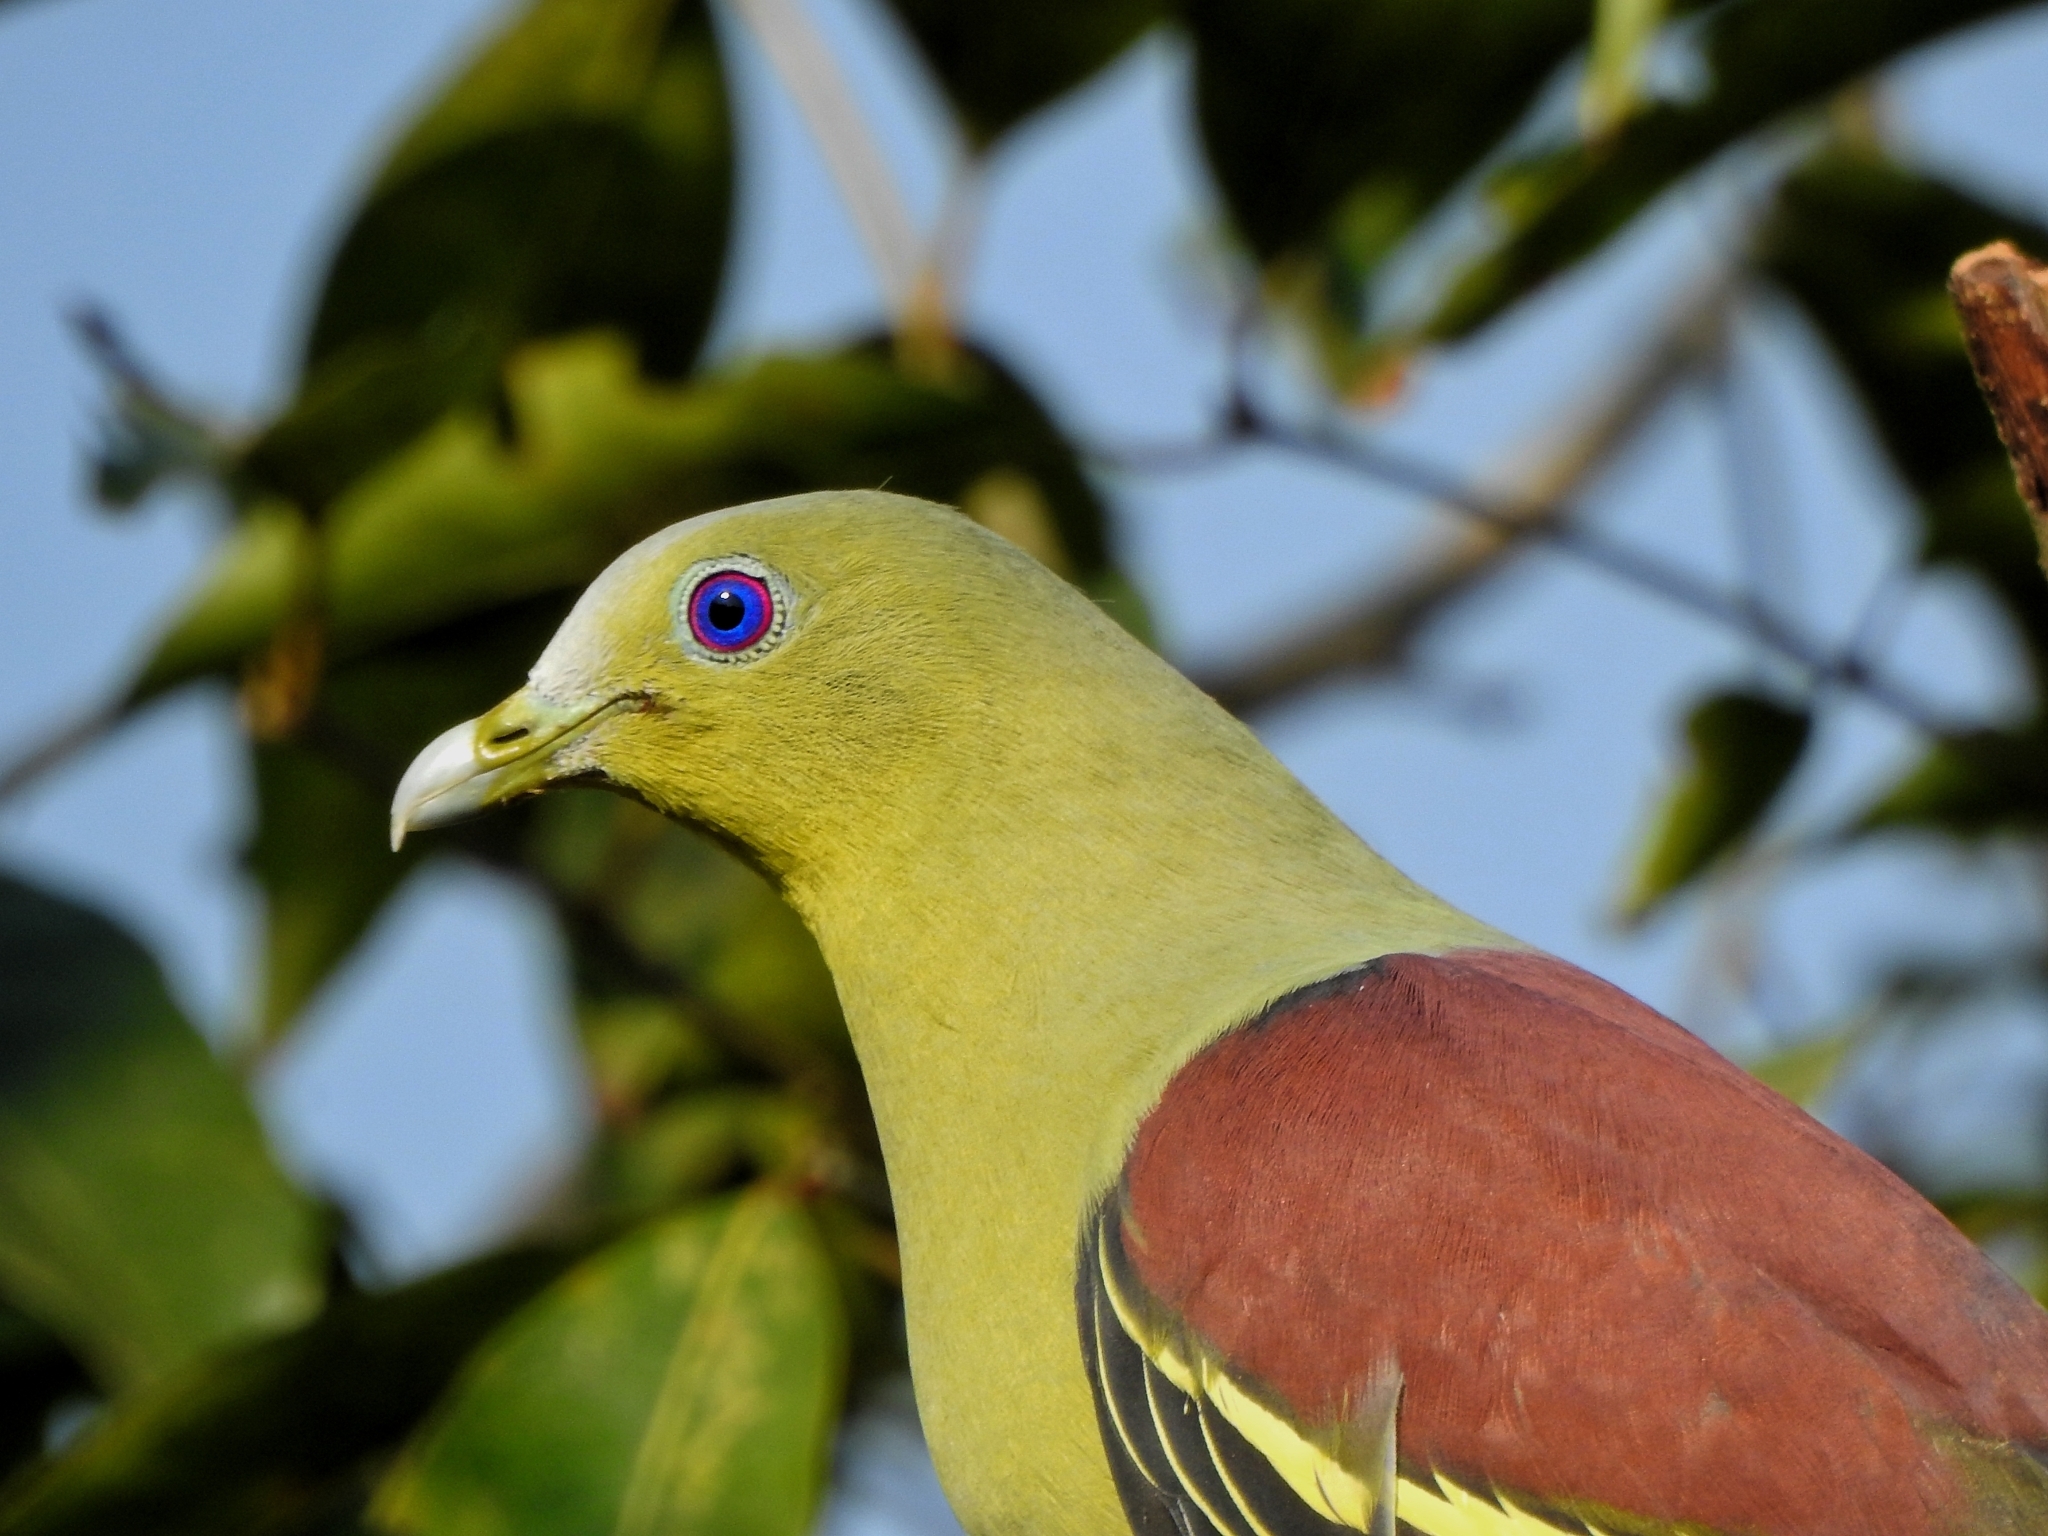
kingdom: Animalia
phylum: Chordata
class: Aves
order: Columbiformes
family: Columbidae
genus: Treron
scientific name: Treron affinis
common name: Grey-fronted green pigeon
